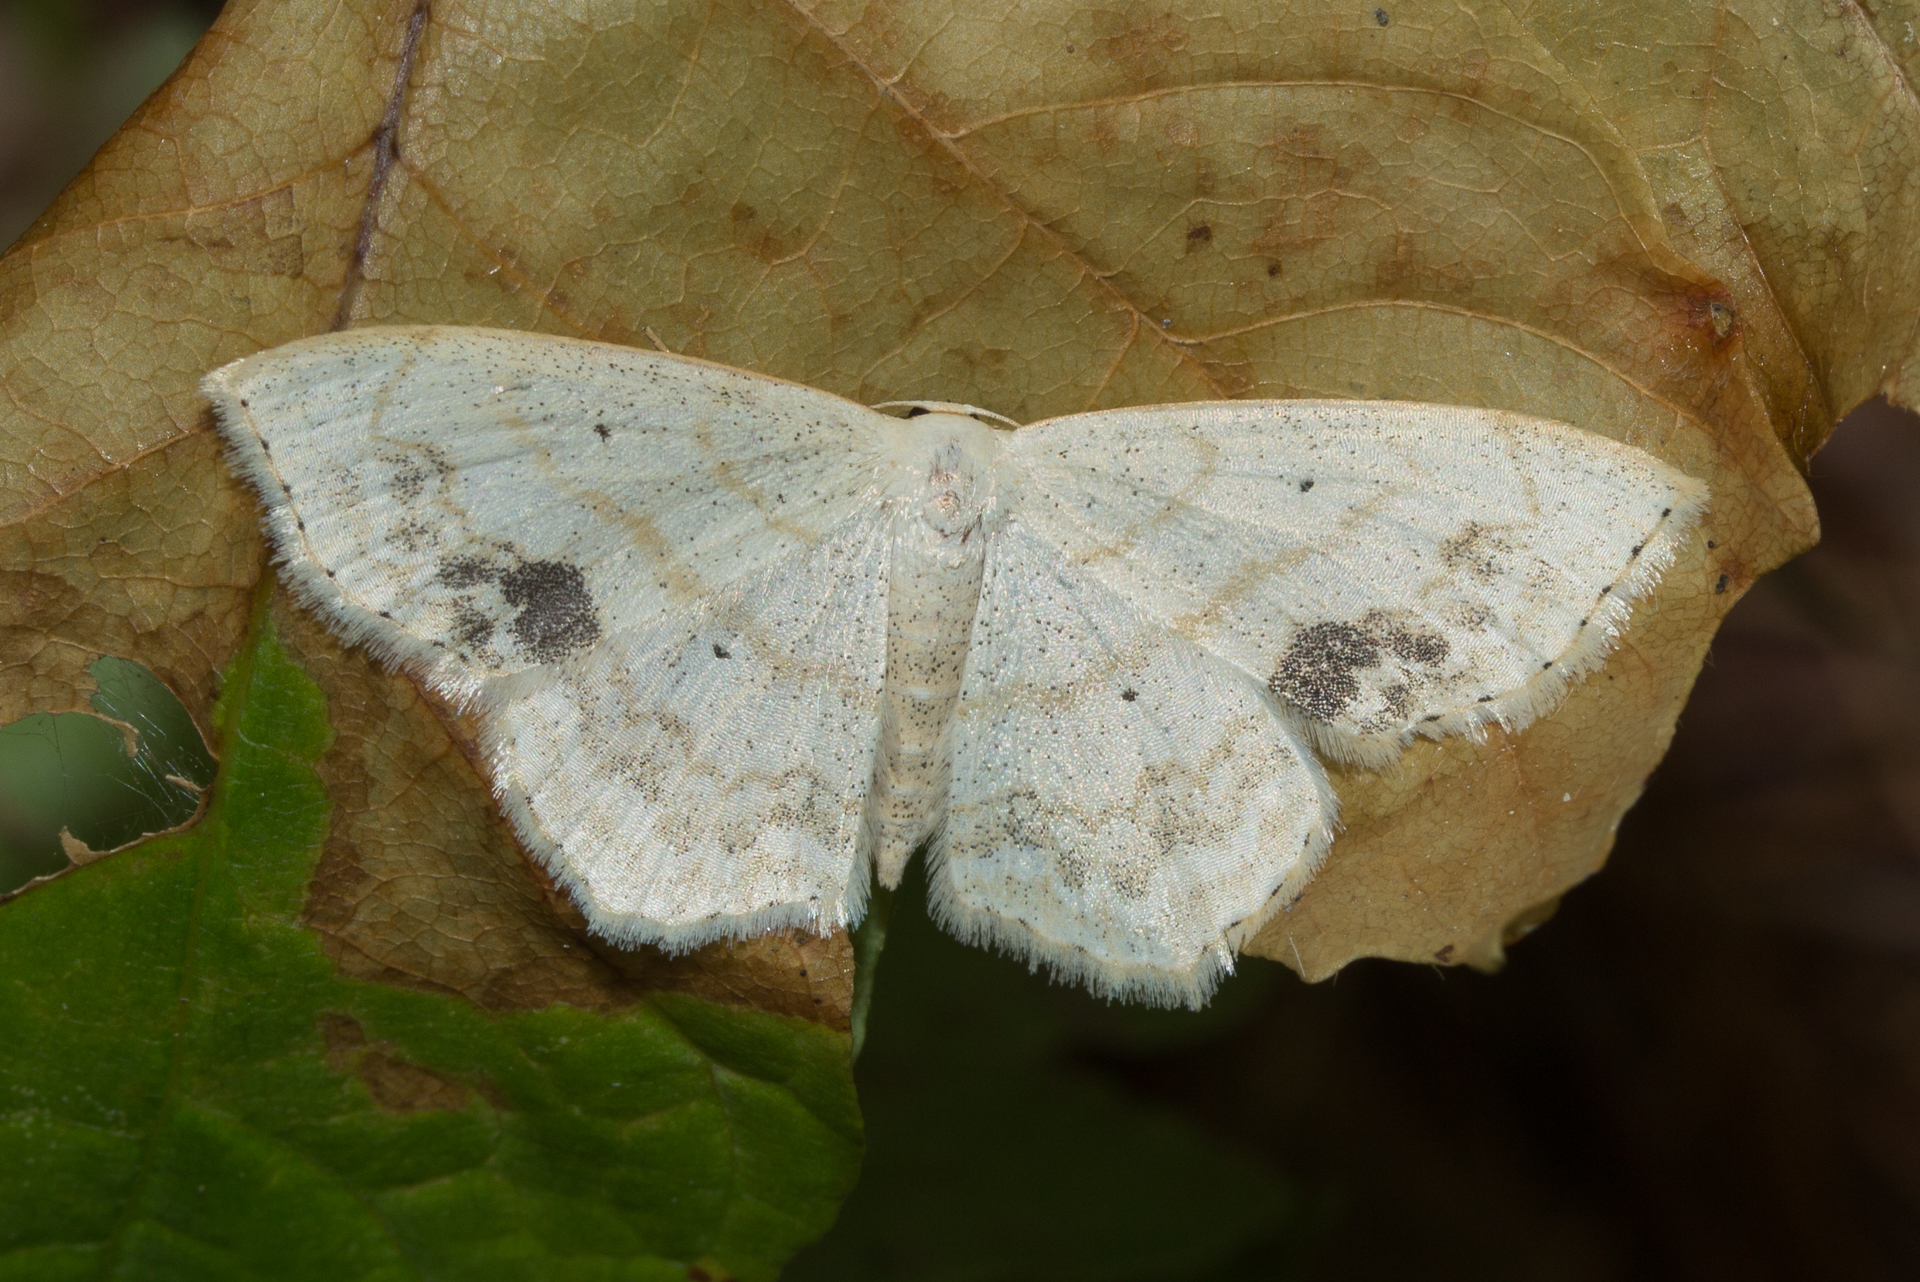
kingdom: Animalia
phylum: Arthropoda
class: Insecta
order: Lepidoptera
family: Geometridae
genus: Scopula
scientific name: Scopula limboundata
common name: Large lace border
